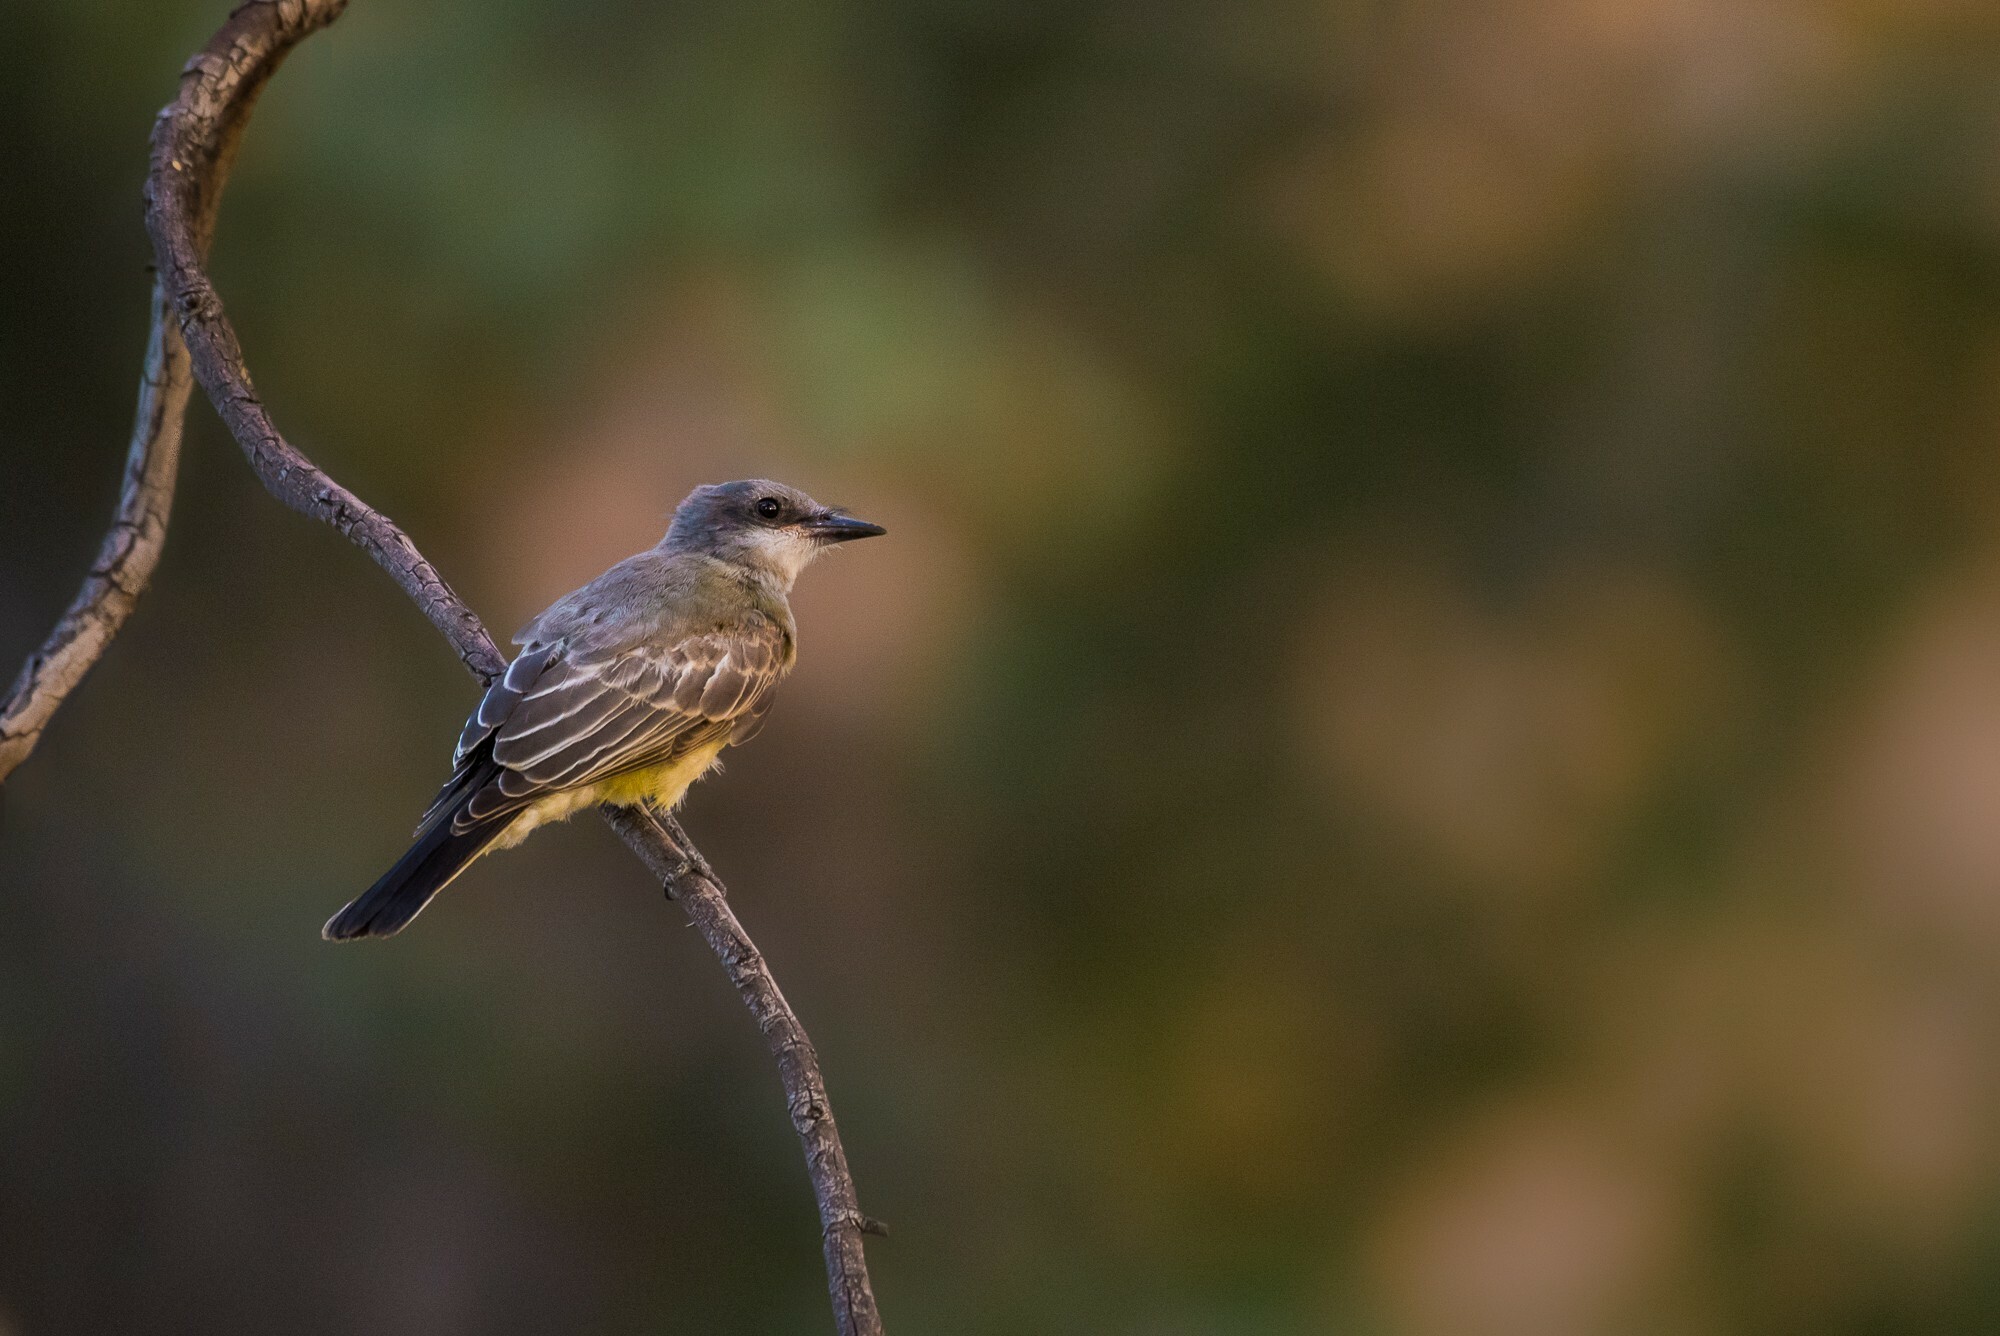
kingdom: Animalia
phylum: Chordata
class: Aves
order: Passeriformes
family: Tyrannidae
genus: Tyrannus
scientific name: Tyrannus vociferans
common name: Cassin's kingbird
